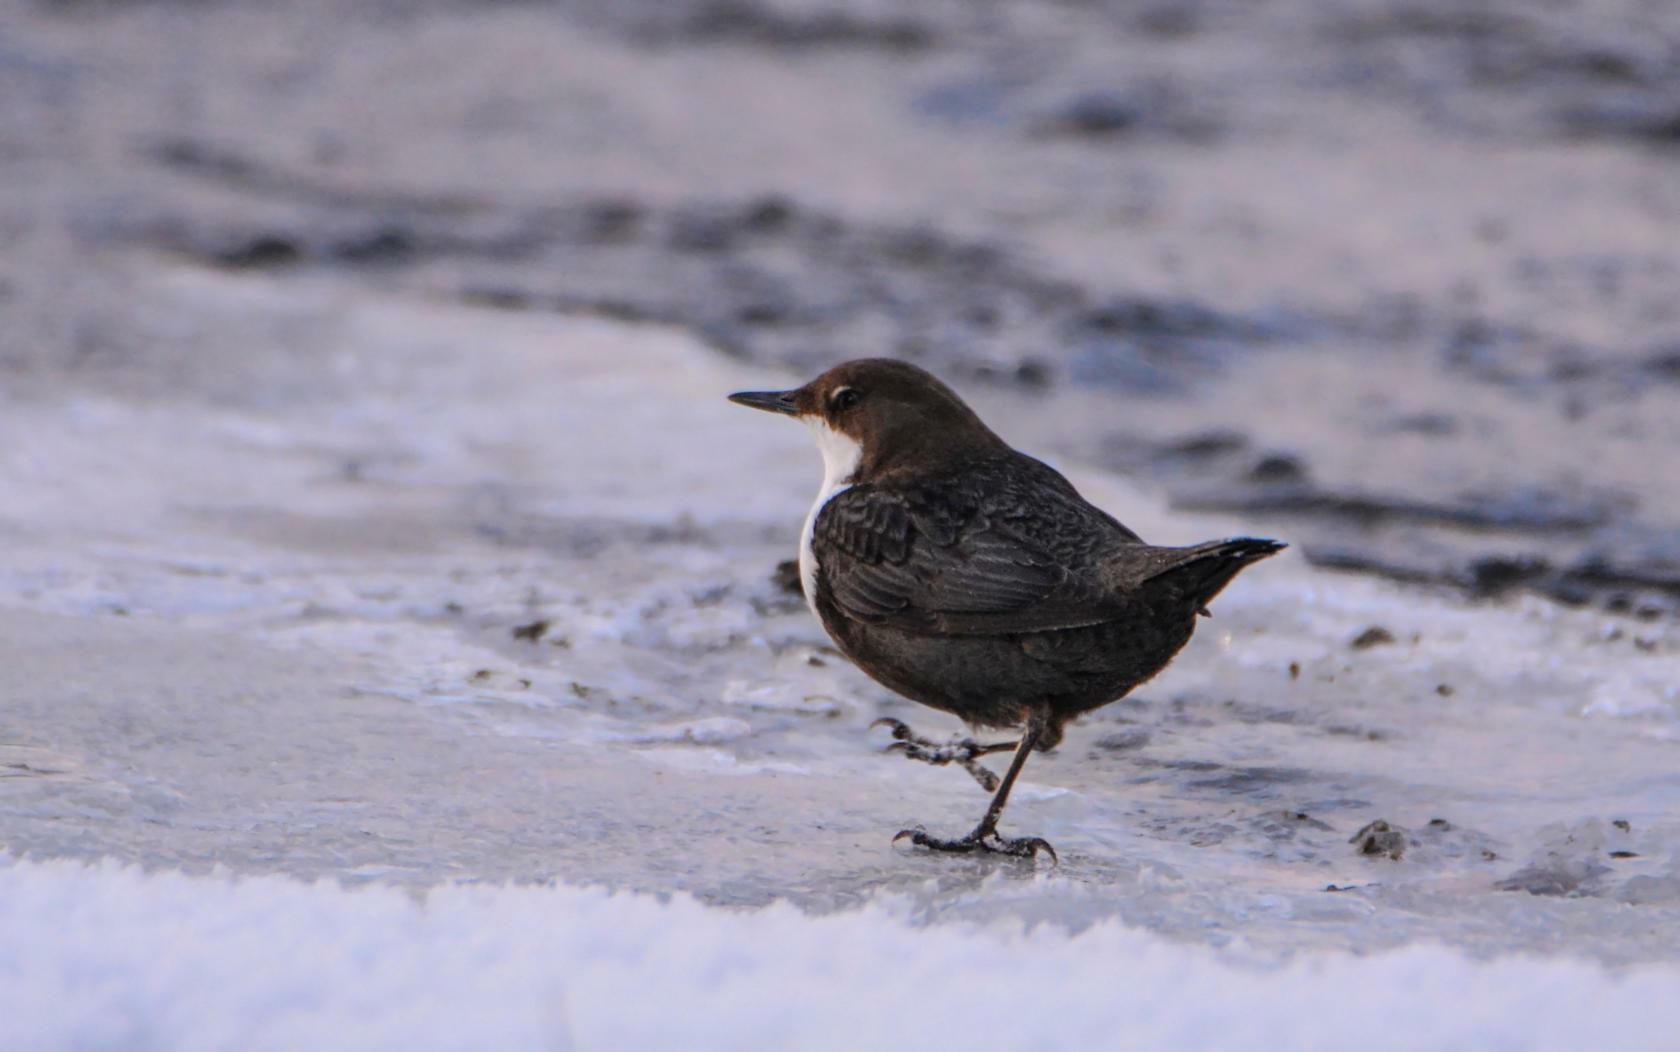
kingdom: Animalia
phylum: Chordata
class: Aves
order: Passeriformes
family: Cinclidae
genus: Cinclus
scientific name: Cinclus cinclus
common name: White-throated dipper
